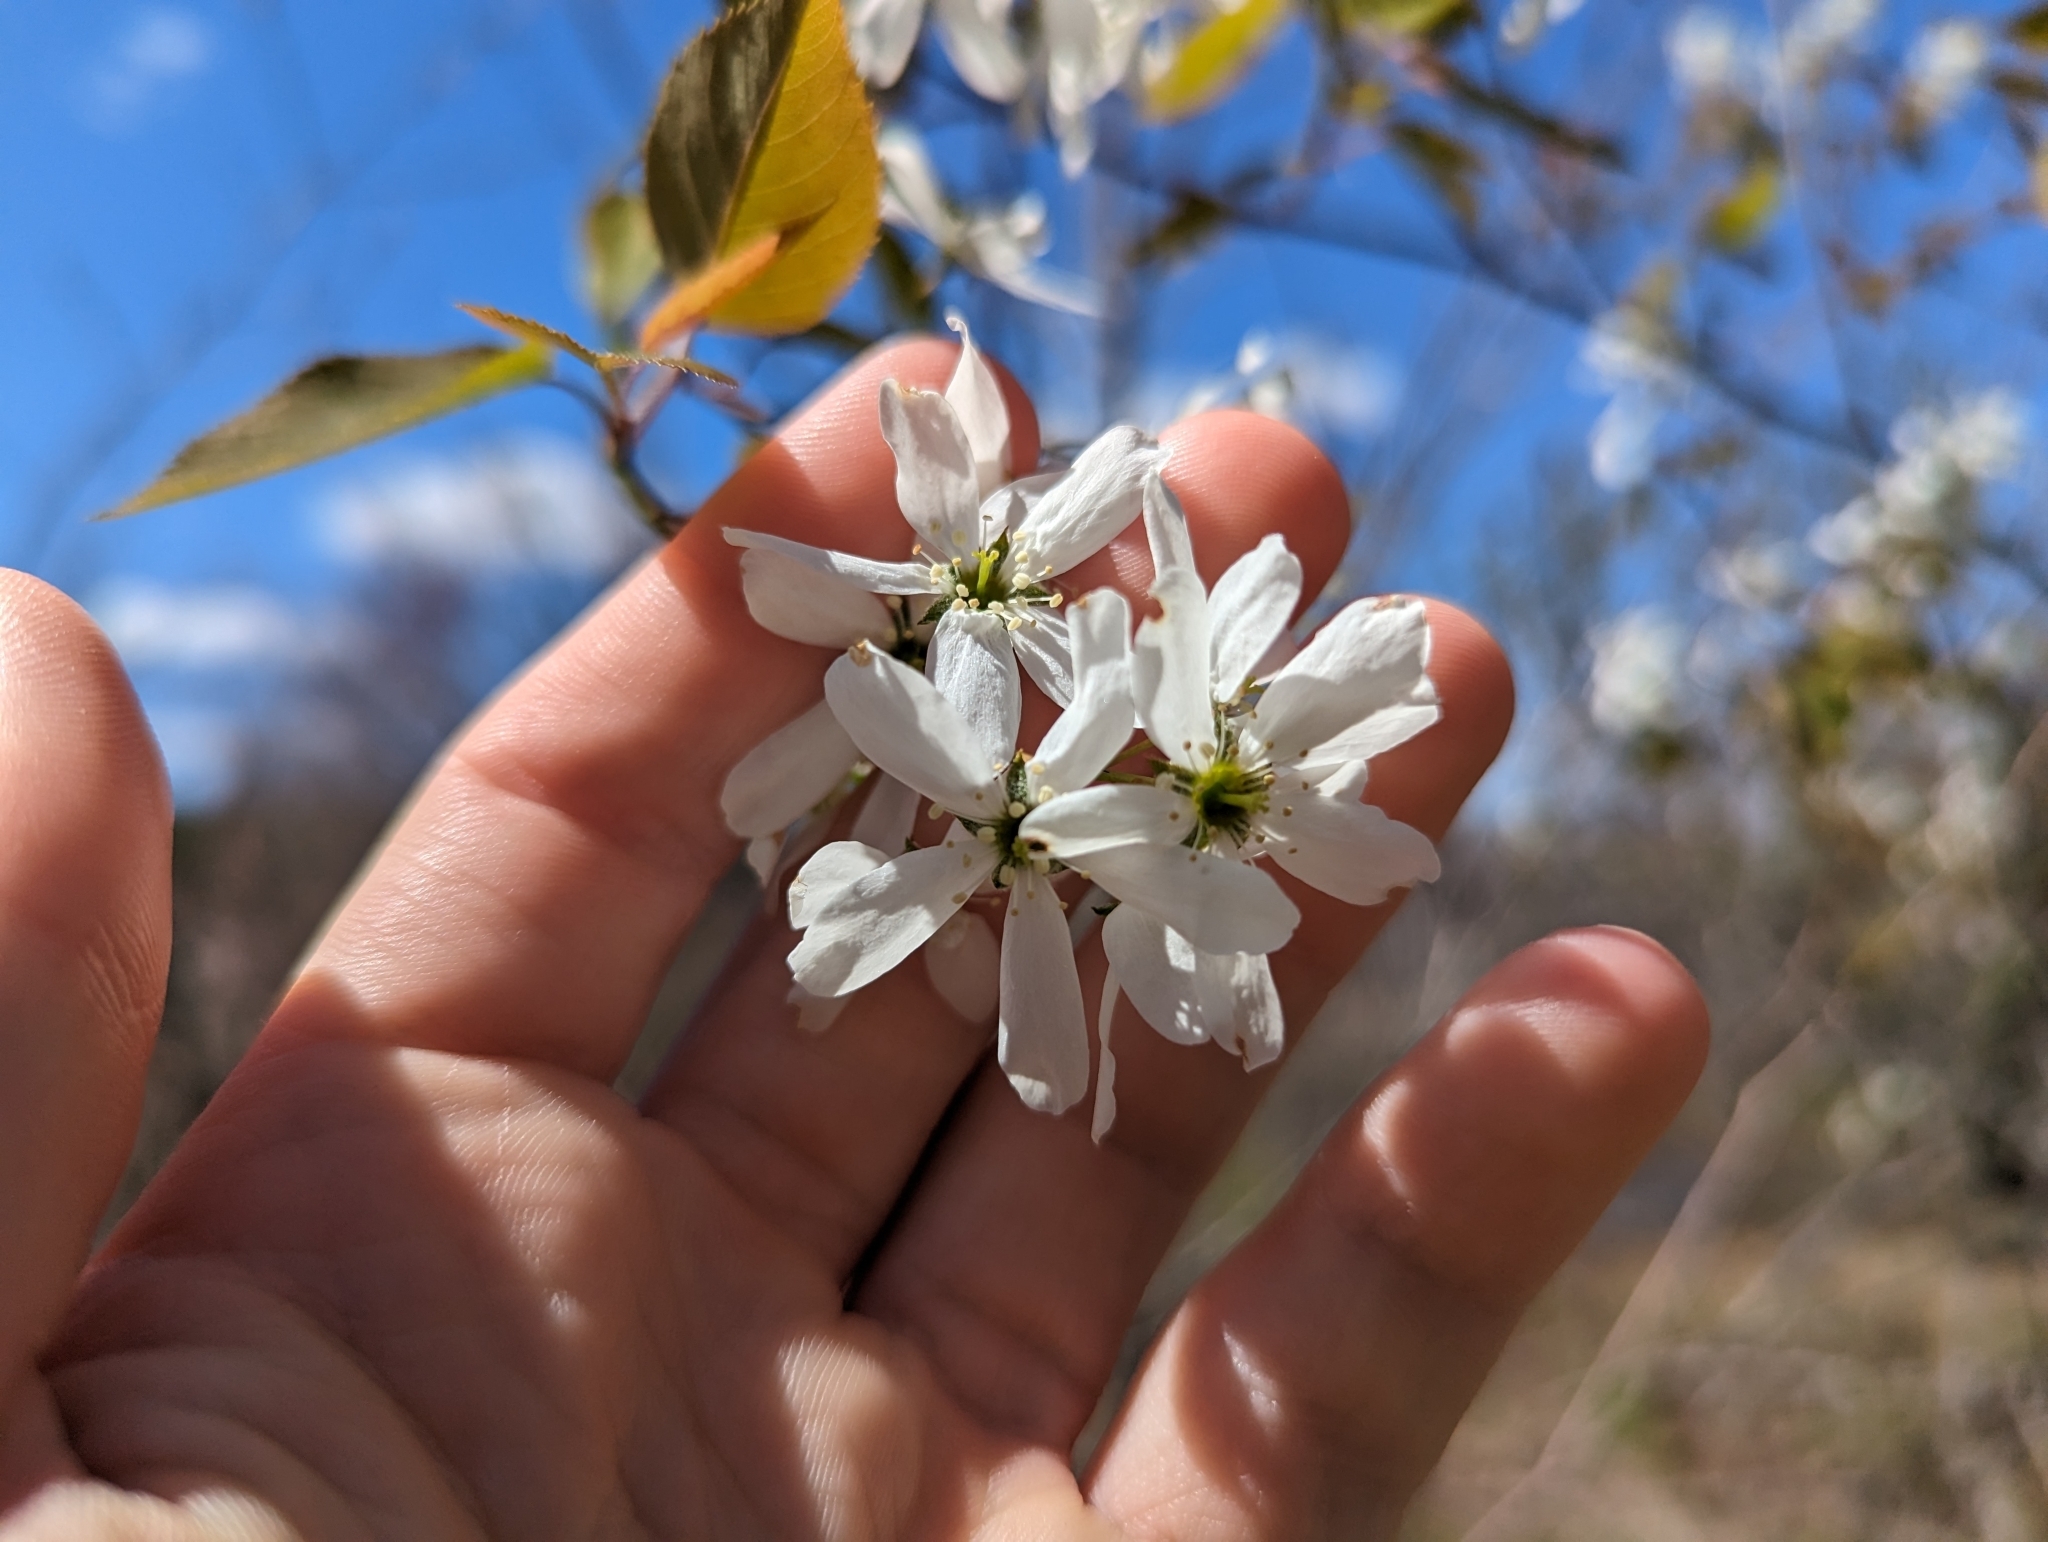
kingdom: Plantae
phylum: Tracheophyta
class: Magnoliopsida
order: Rosales
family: Rosaceae
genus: Amelanchier
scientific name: Amelanchier laevis
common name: Allegheny serviceberry
